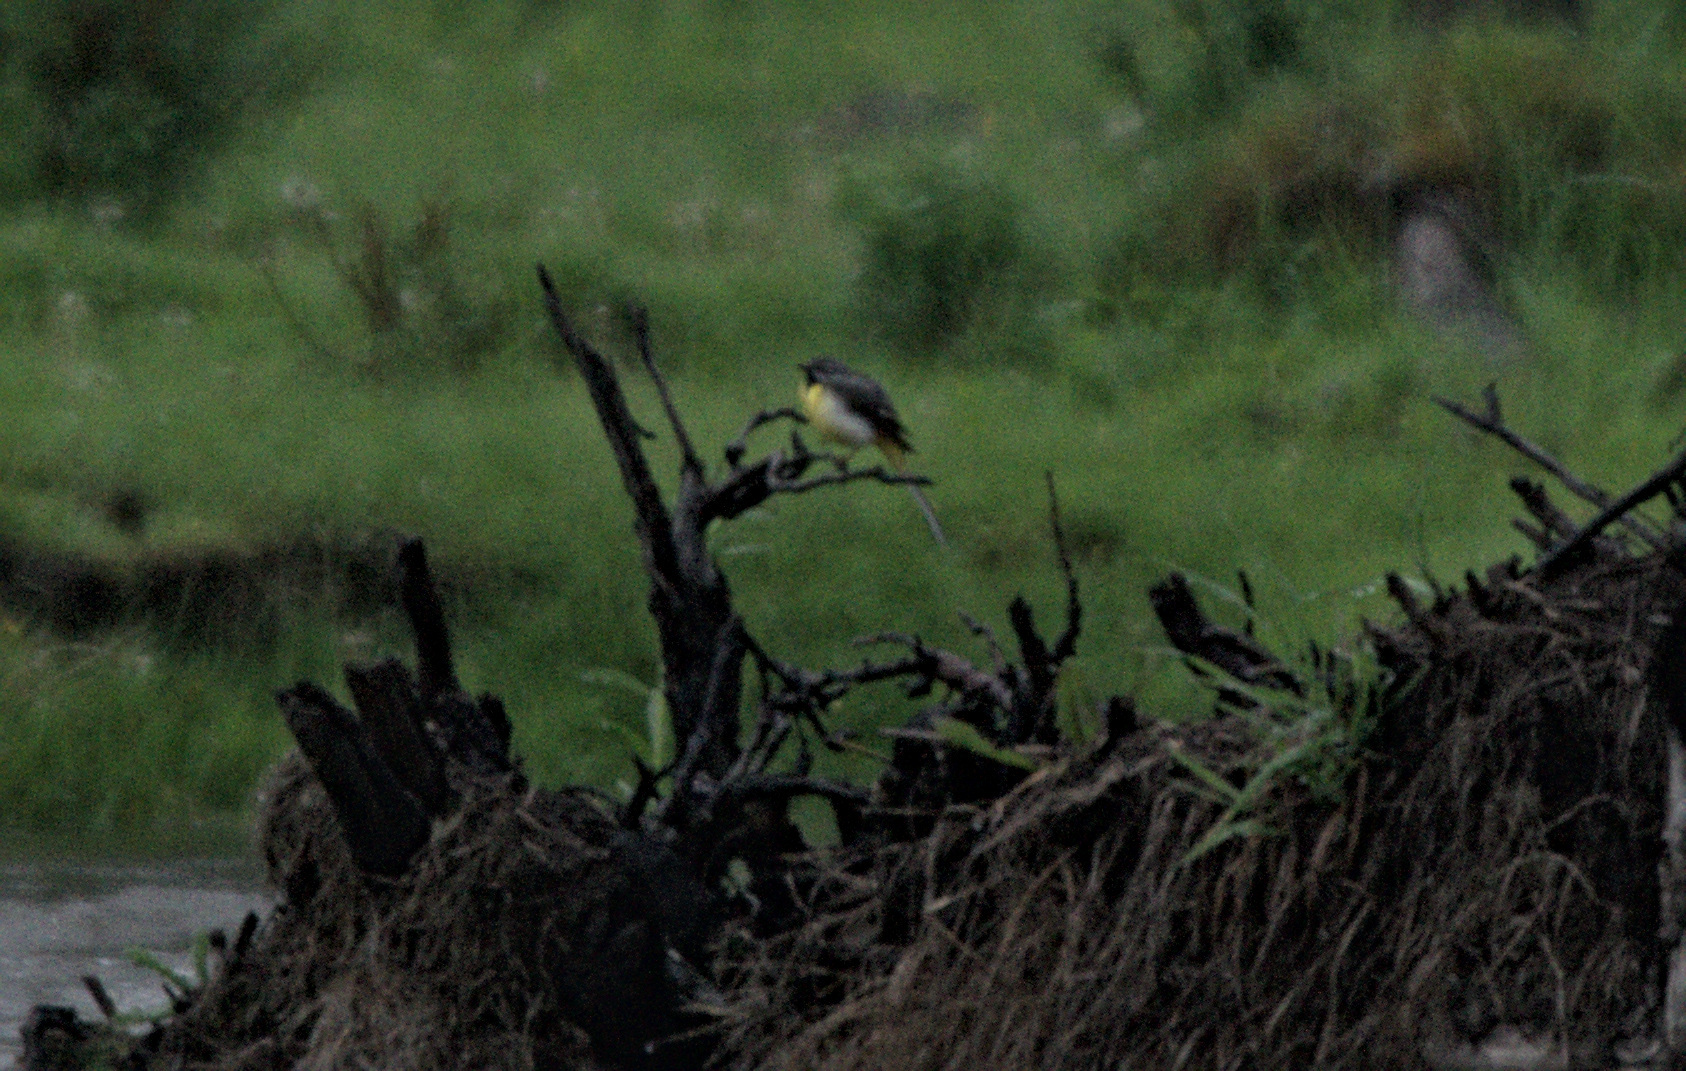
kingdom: Animalia
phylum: Chordata
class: Aves
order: Passeriformes
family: Motacillidae
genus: Motacilla
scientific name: Motacilla cinerea
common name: Grey wagtail
